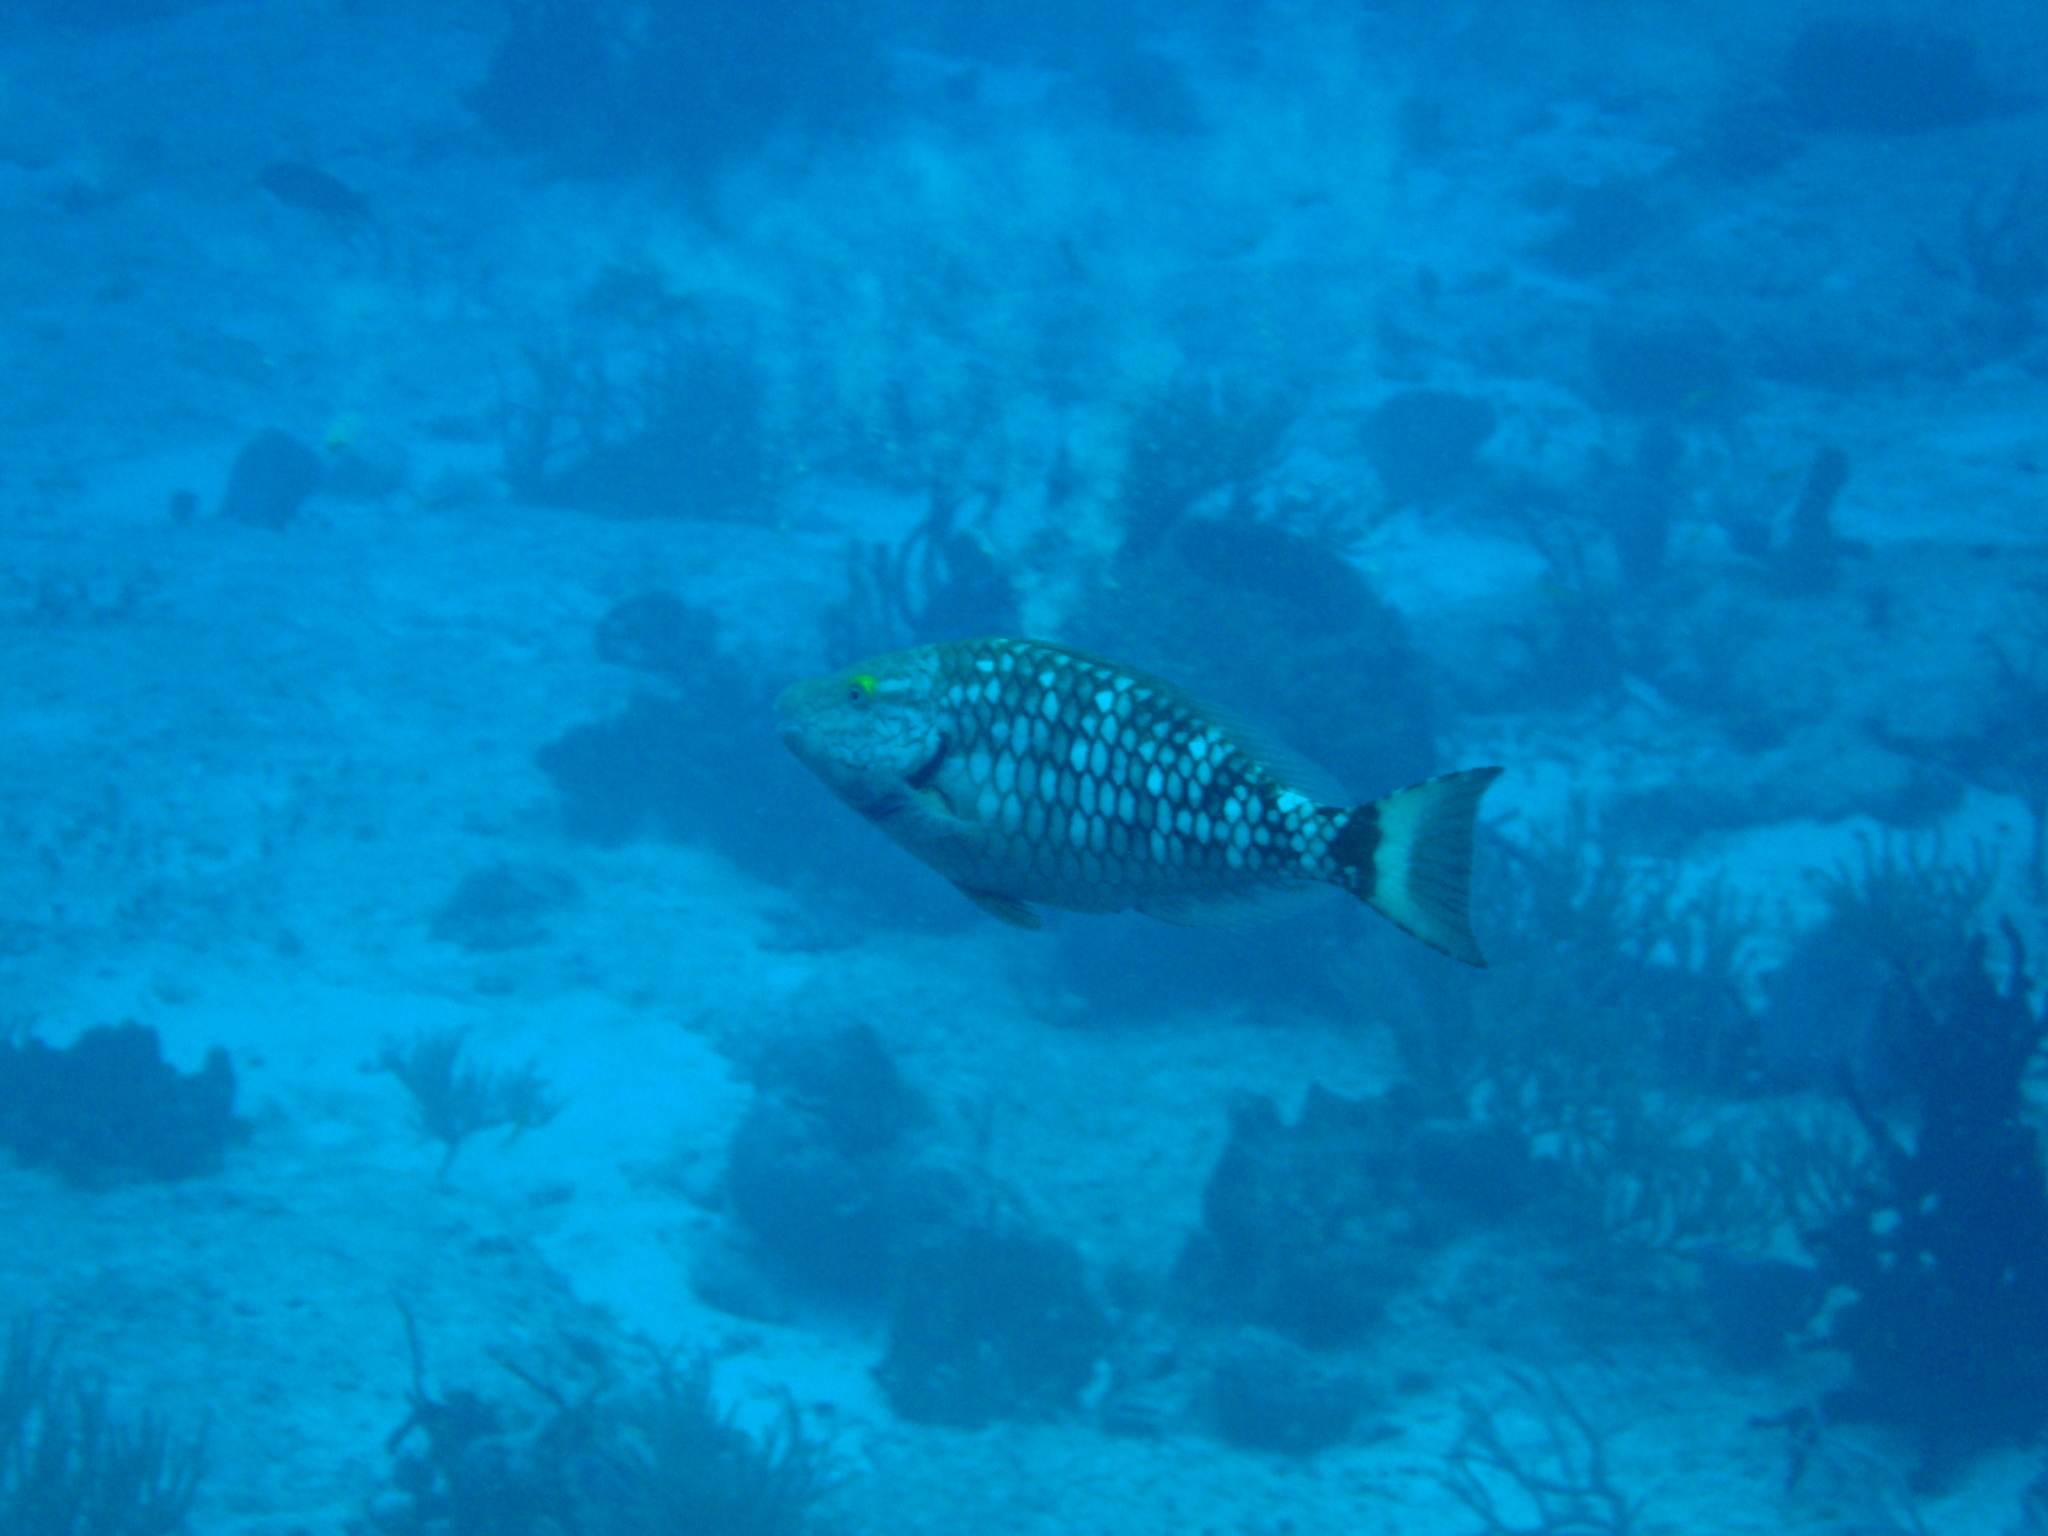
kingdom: Animalia
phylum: Chordata
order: Perciformes
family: Scaridae
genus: Sparisoma
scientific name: Sparisoma viride
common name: Stoplight parrotfish
